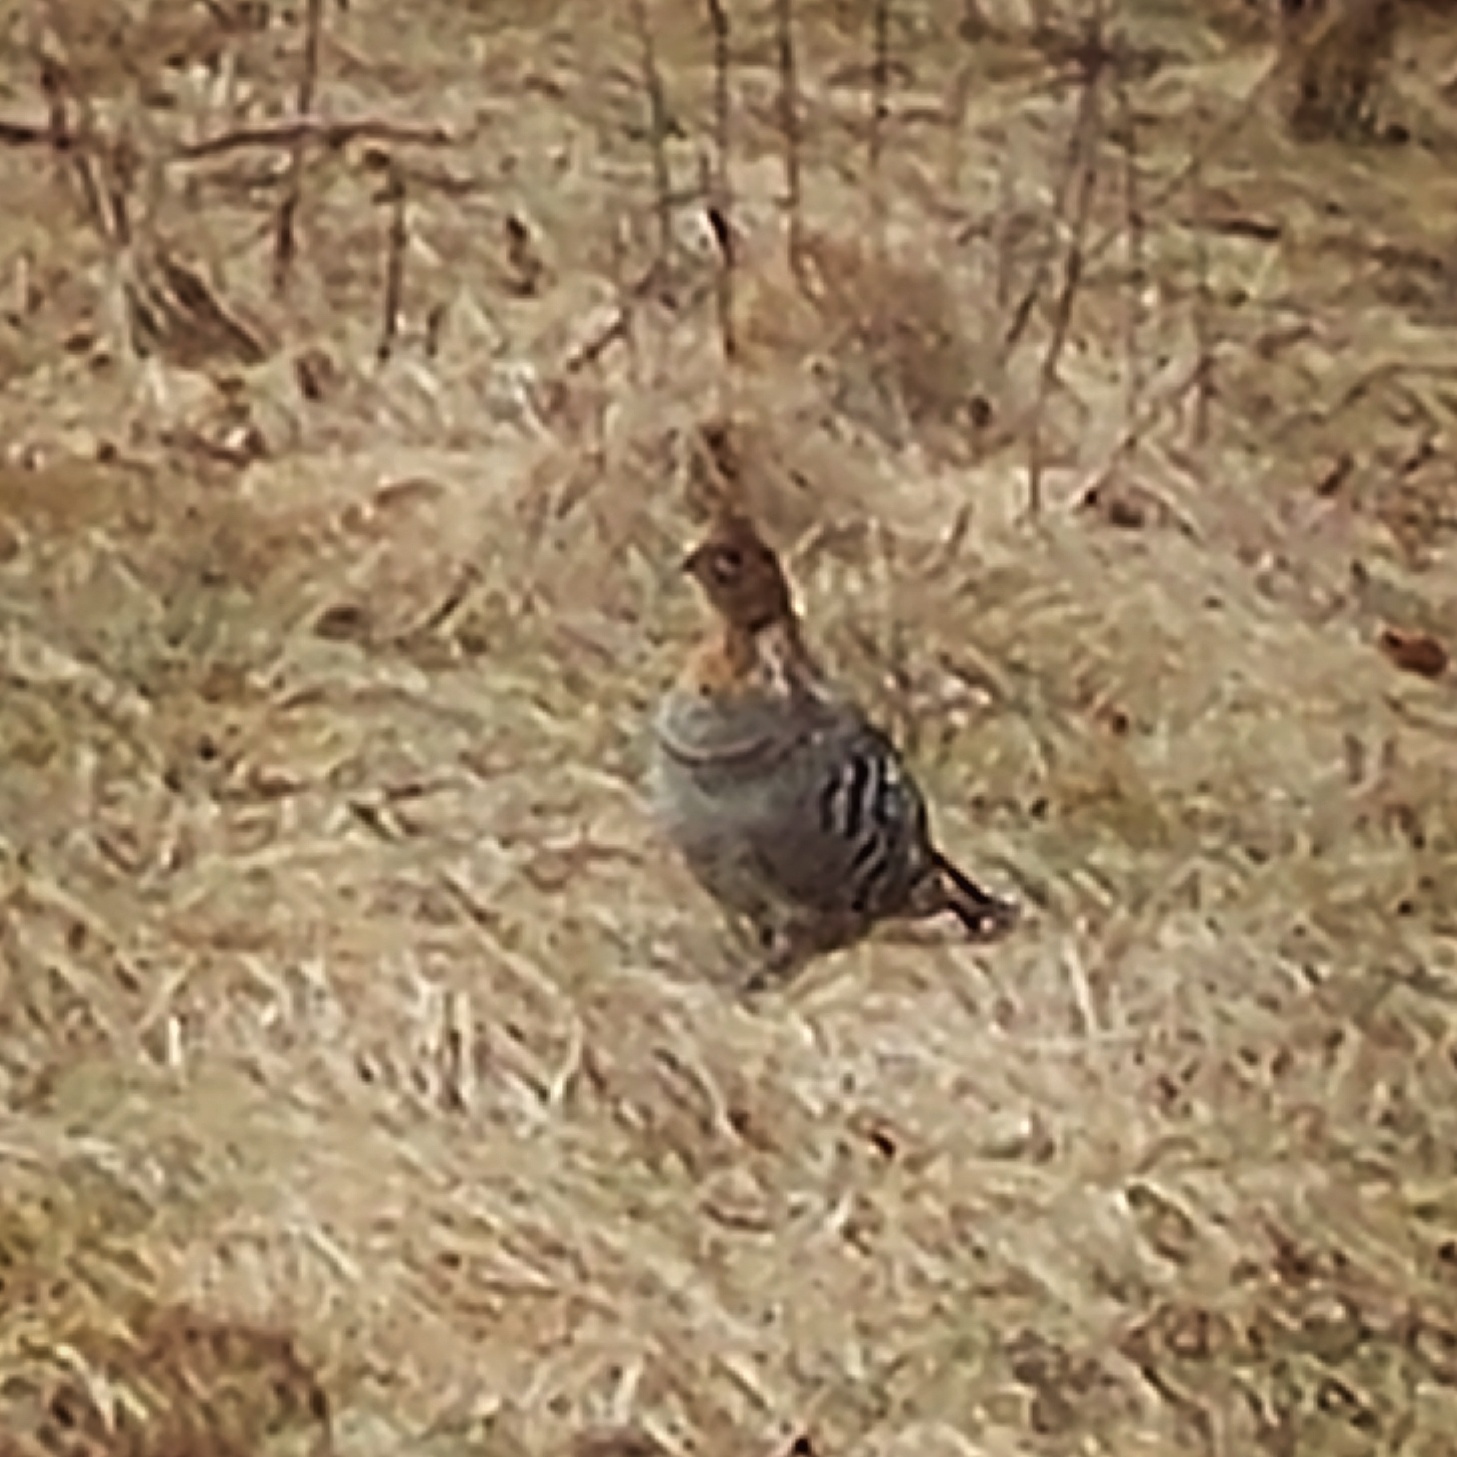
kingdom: Animalia
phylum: Chordata
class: Aves
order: Galliformes
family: Phasianidae
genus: Bonasa
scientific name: Bonasa umbellus
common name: Ruffed grouse
